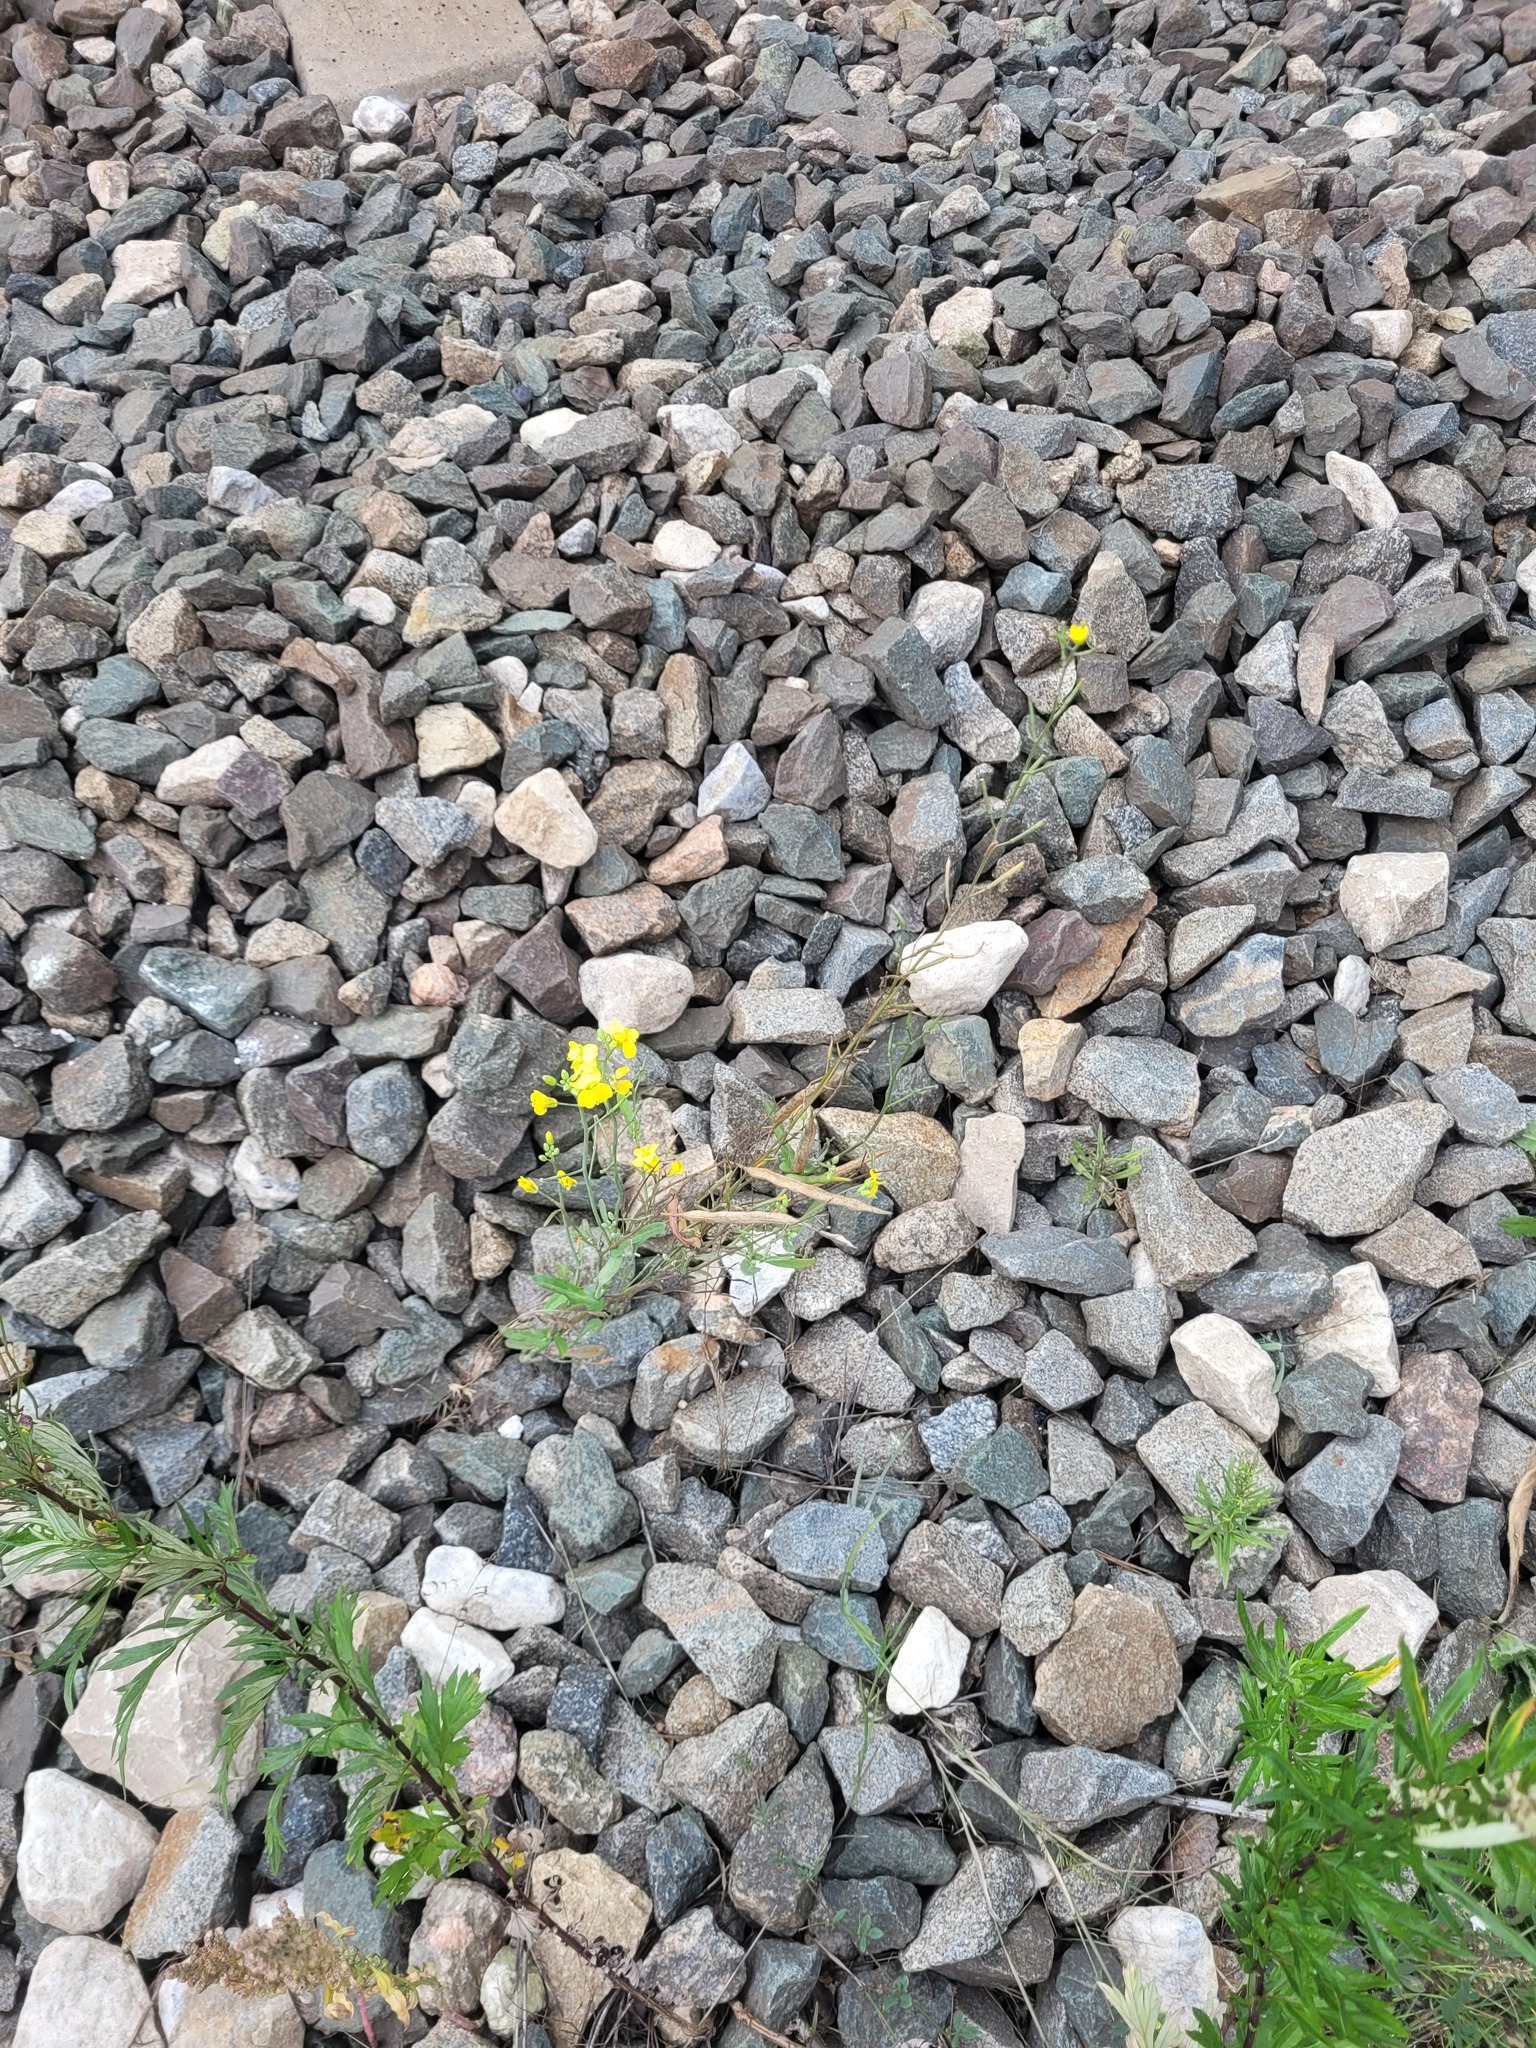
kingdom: Plantae
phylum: Tracheophyta
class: Magnoliopsida
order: Brassicales
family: Brassicaceae
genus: Brassica
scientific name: Brassica napus
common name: Rape
